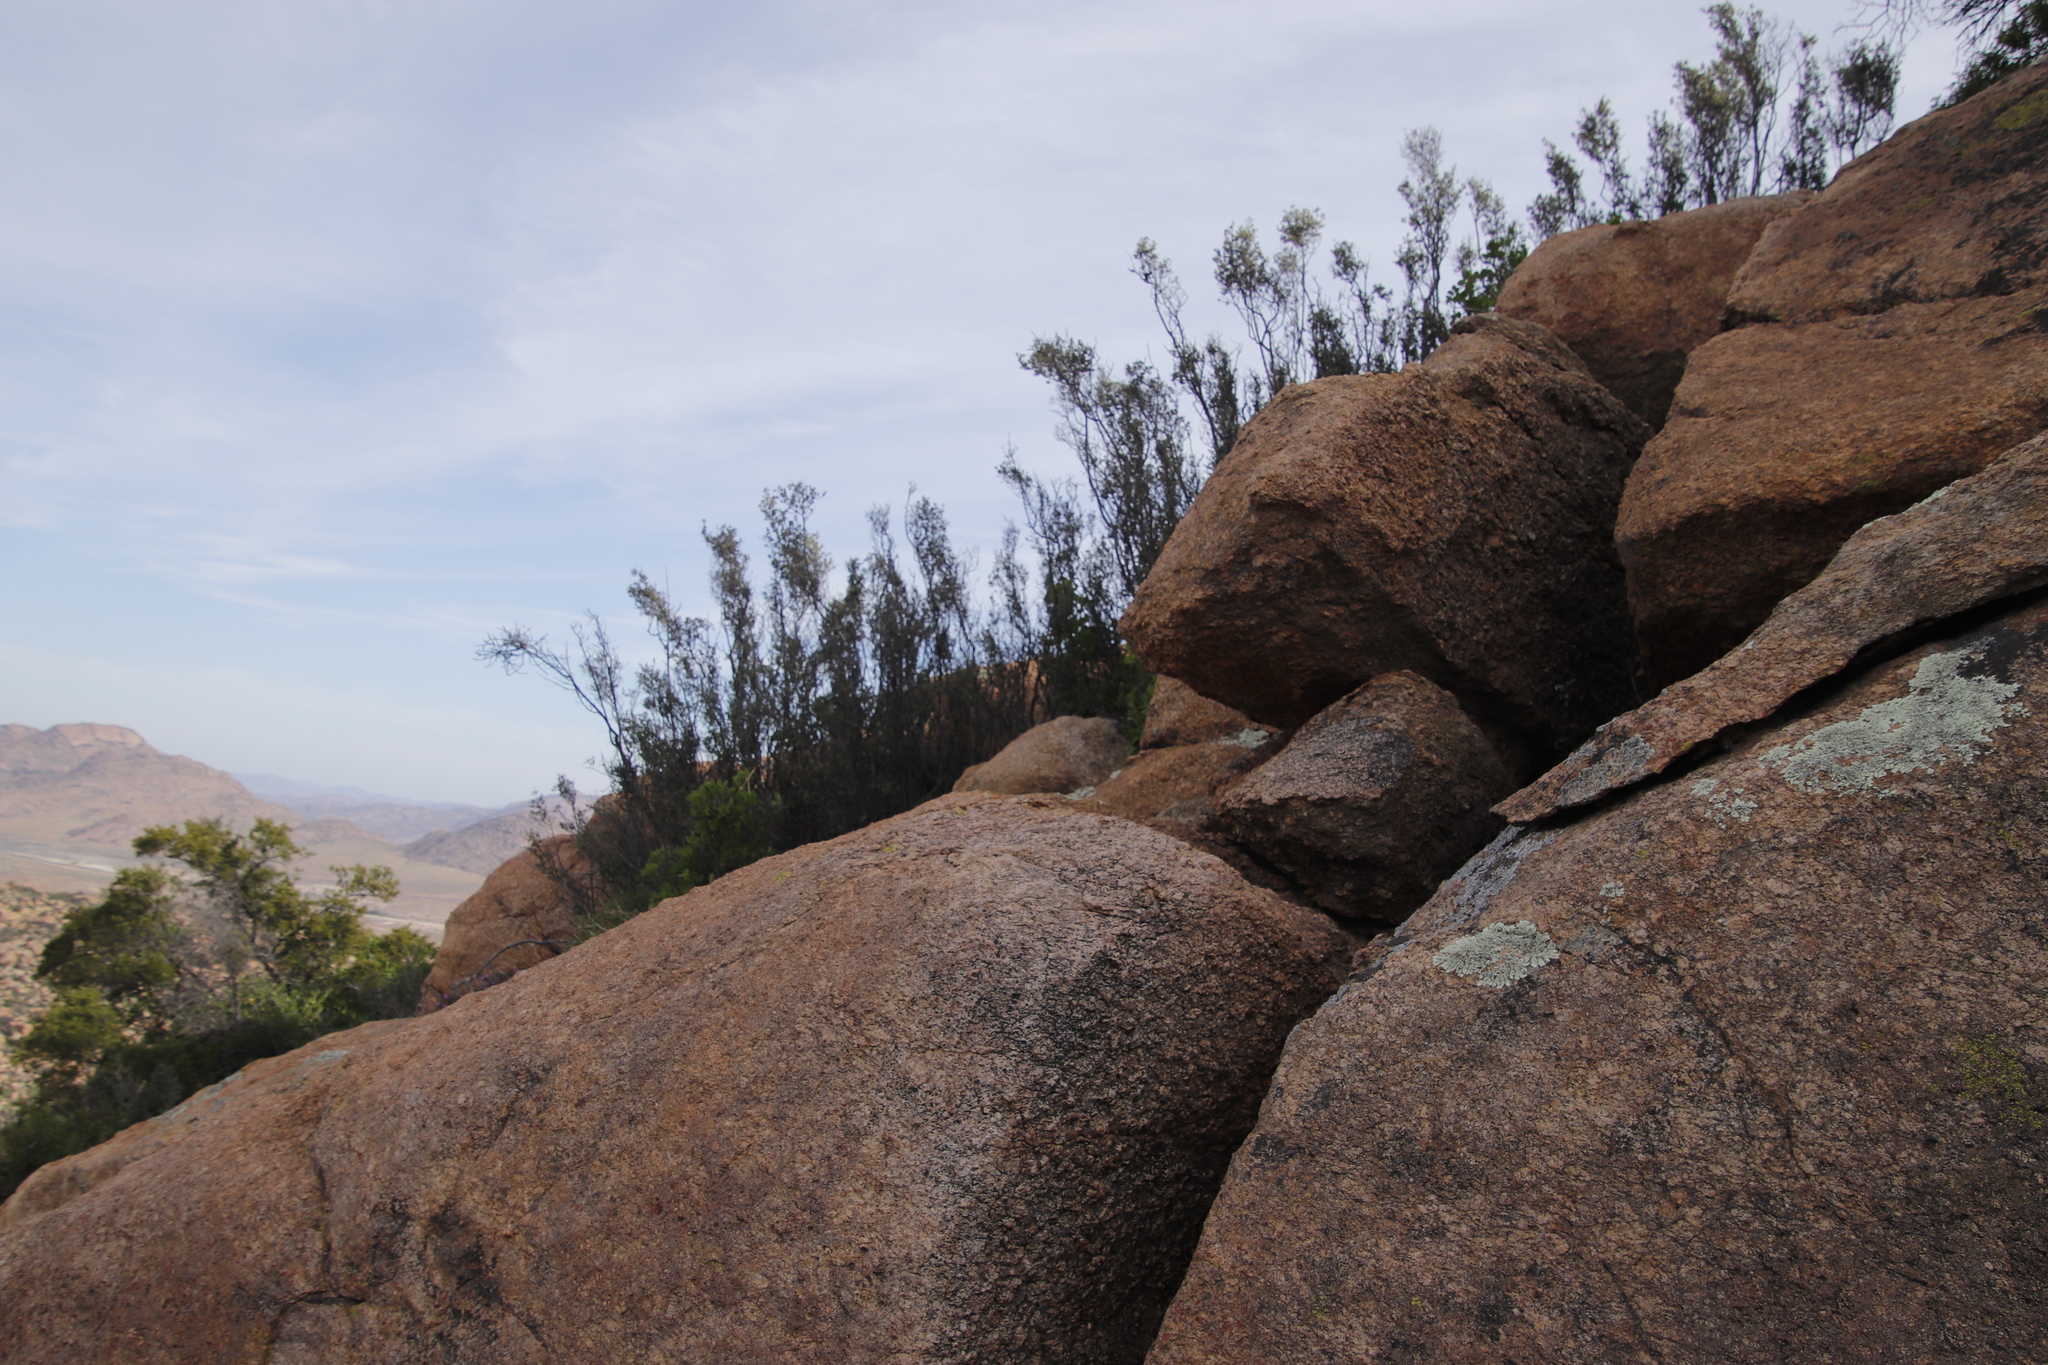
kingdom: Plantae
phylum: Tracheophyta
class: Magnoliopsida
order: Ericales
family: Ebenaceae
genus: Diospyros
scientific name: Diospyros pubescens
